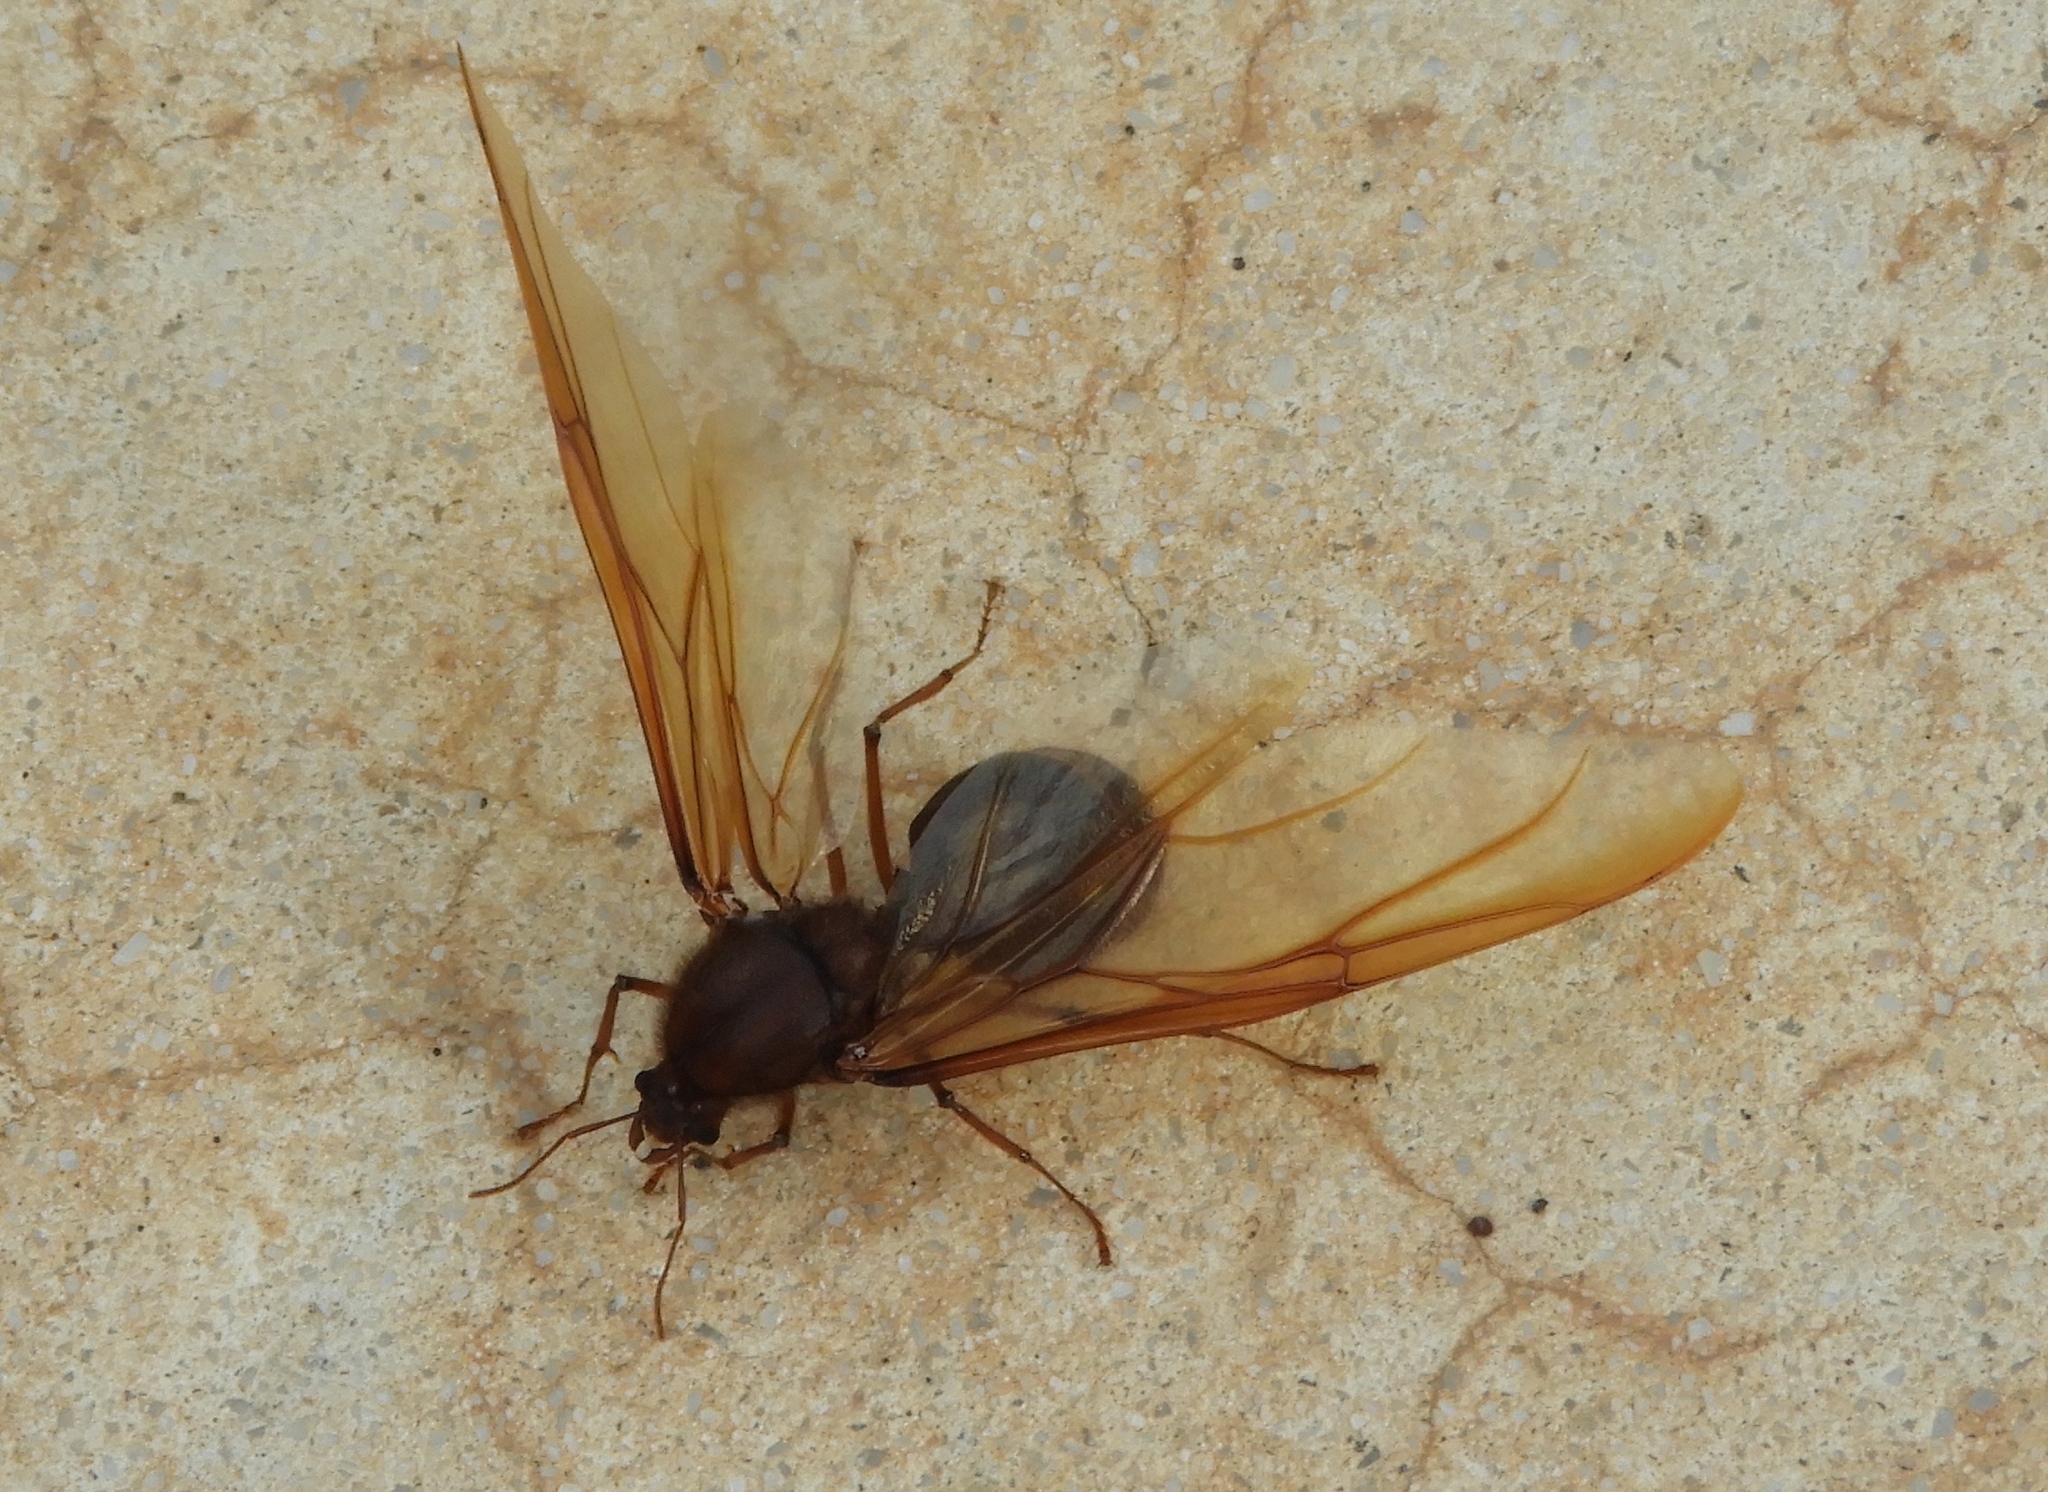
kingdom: Animalia
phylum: Arthropoda
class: Insecta
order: Hymenoptera
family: Formicidae
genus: Atta
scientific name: Atta mexicana
